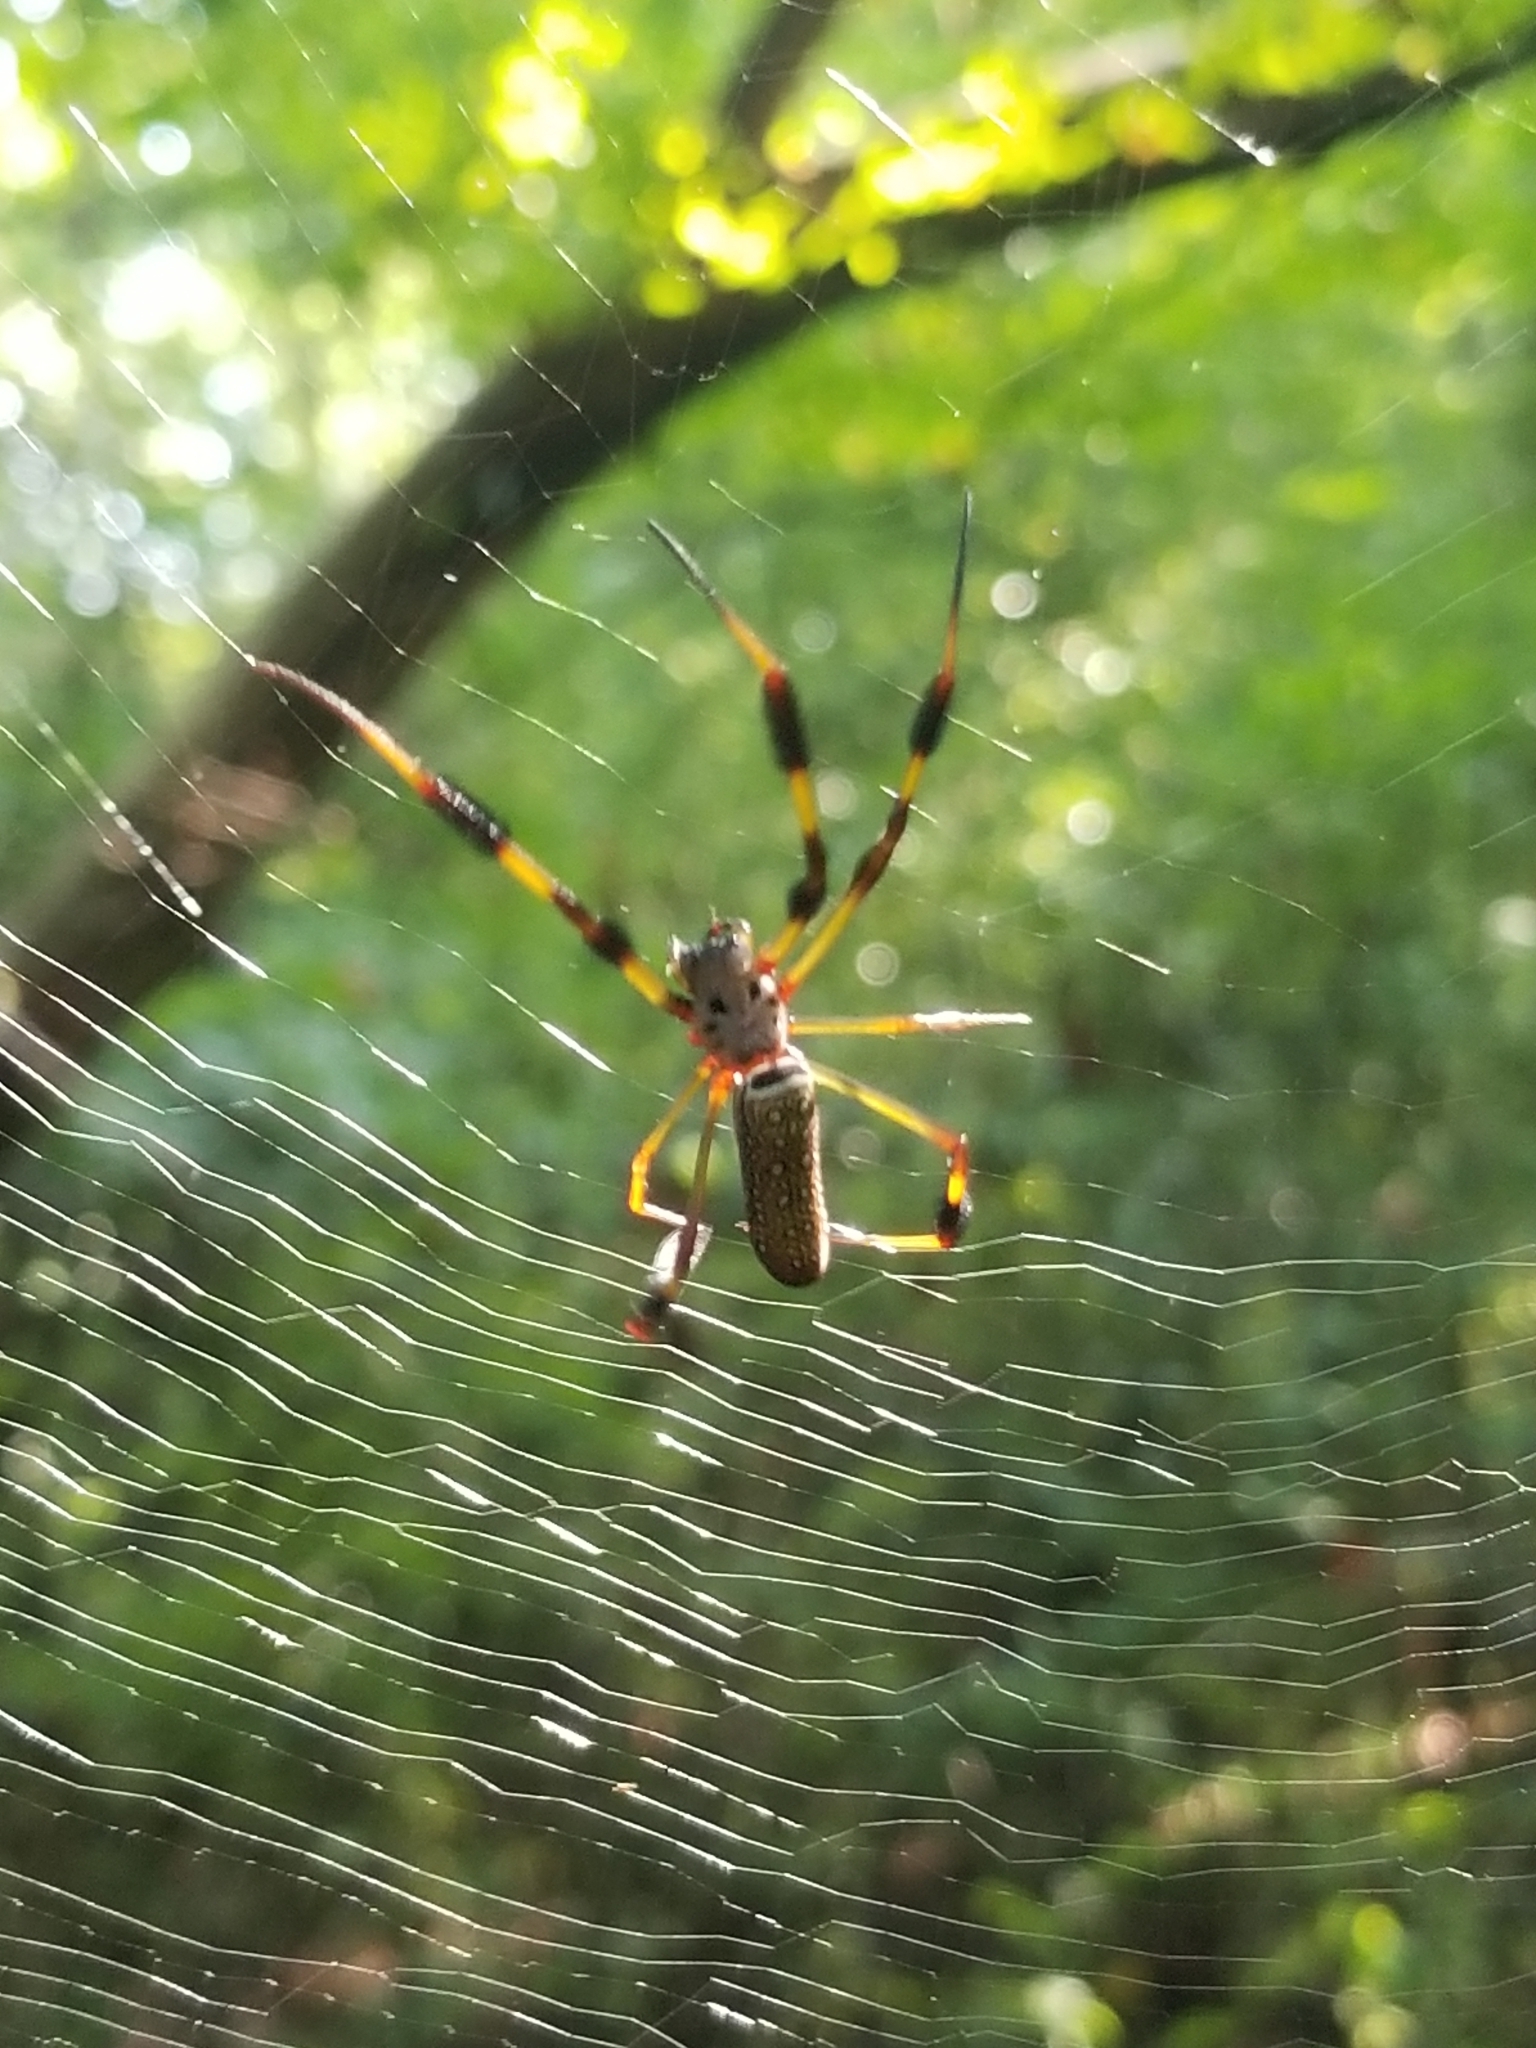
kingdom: Animalia
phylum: Arthropoda
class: Arachnida
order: Araneae
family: Araneidae
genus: Trichonephila
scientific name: Trichonephila clavipes
